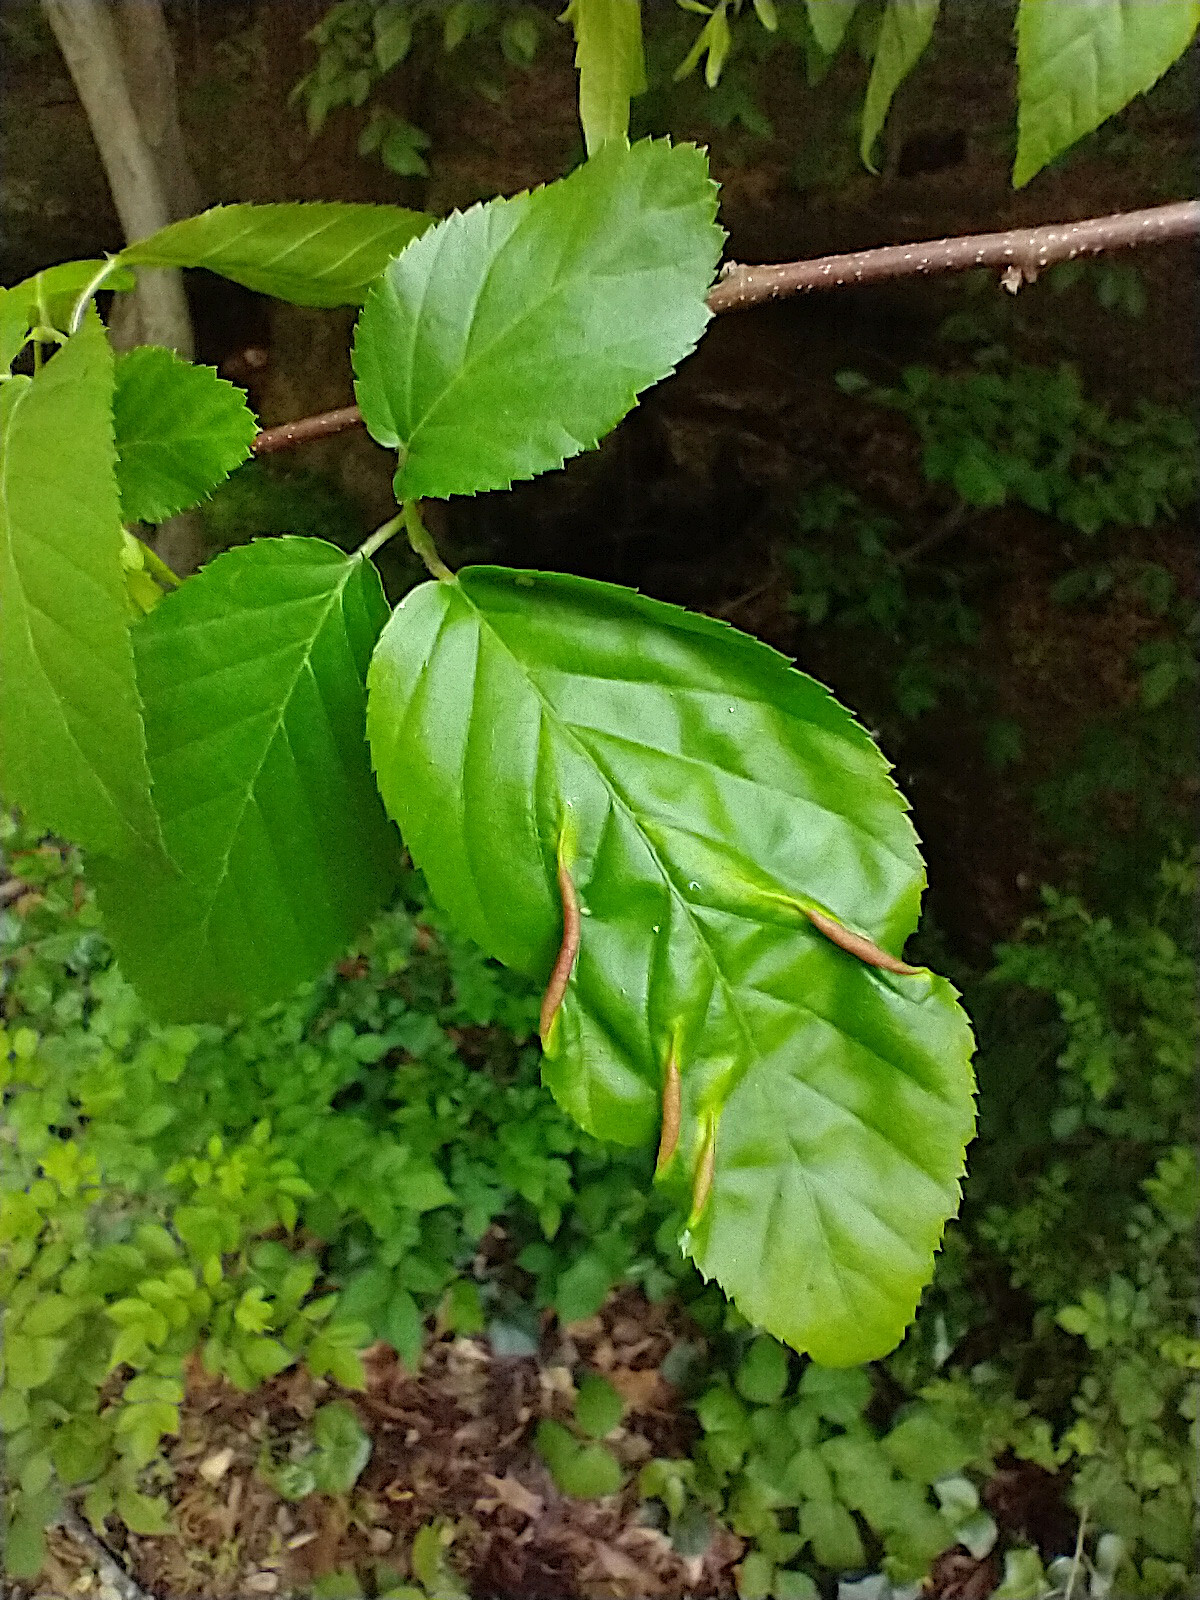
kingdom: Animalia
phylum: Arthropoda
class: Insecta
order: Diptera
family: Cecidomyiidae
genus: Dasineura
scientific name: Dasineura pudibunda
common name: Hornbeam leaf gall midge
